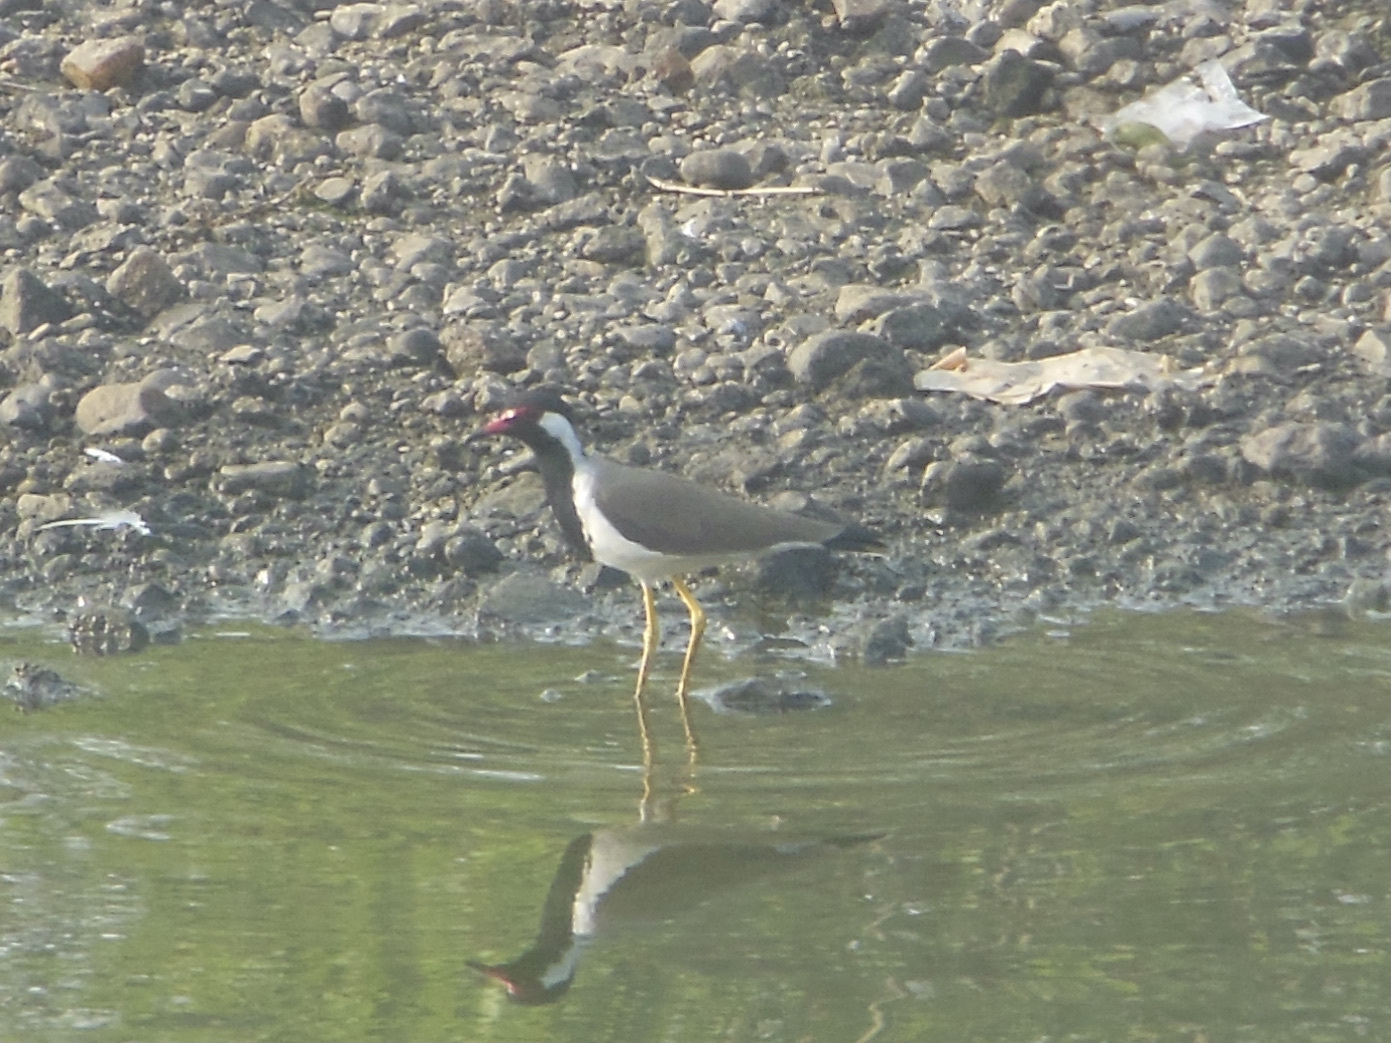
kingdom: Animalia
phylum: Chordata
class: Aves
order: Charadriiformes
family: Charadriidae
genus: Vanellus
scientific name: Vanellus indicus
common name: Red-wattled lapwing
